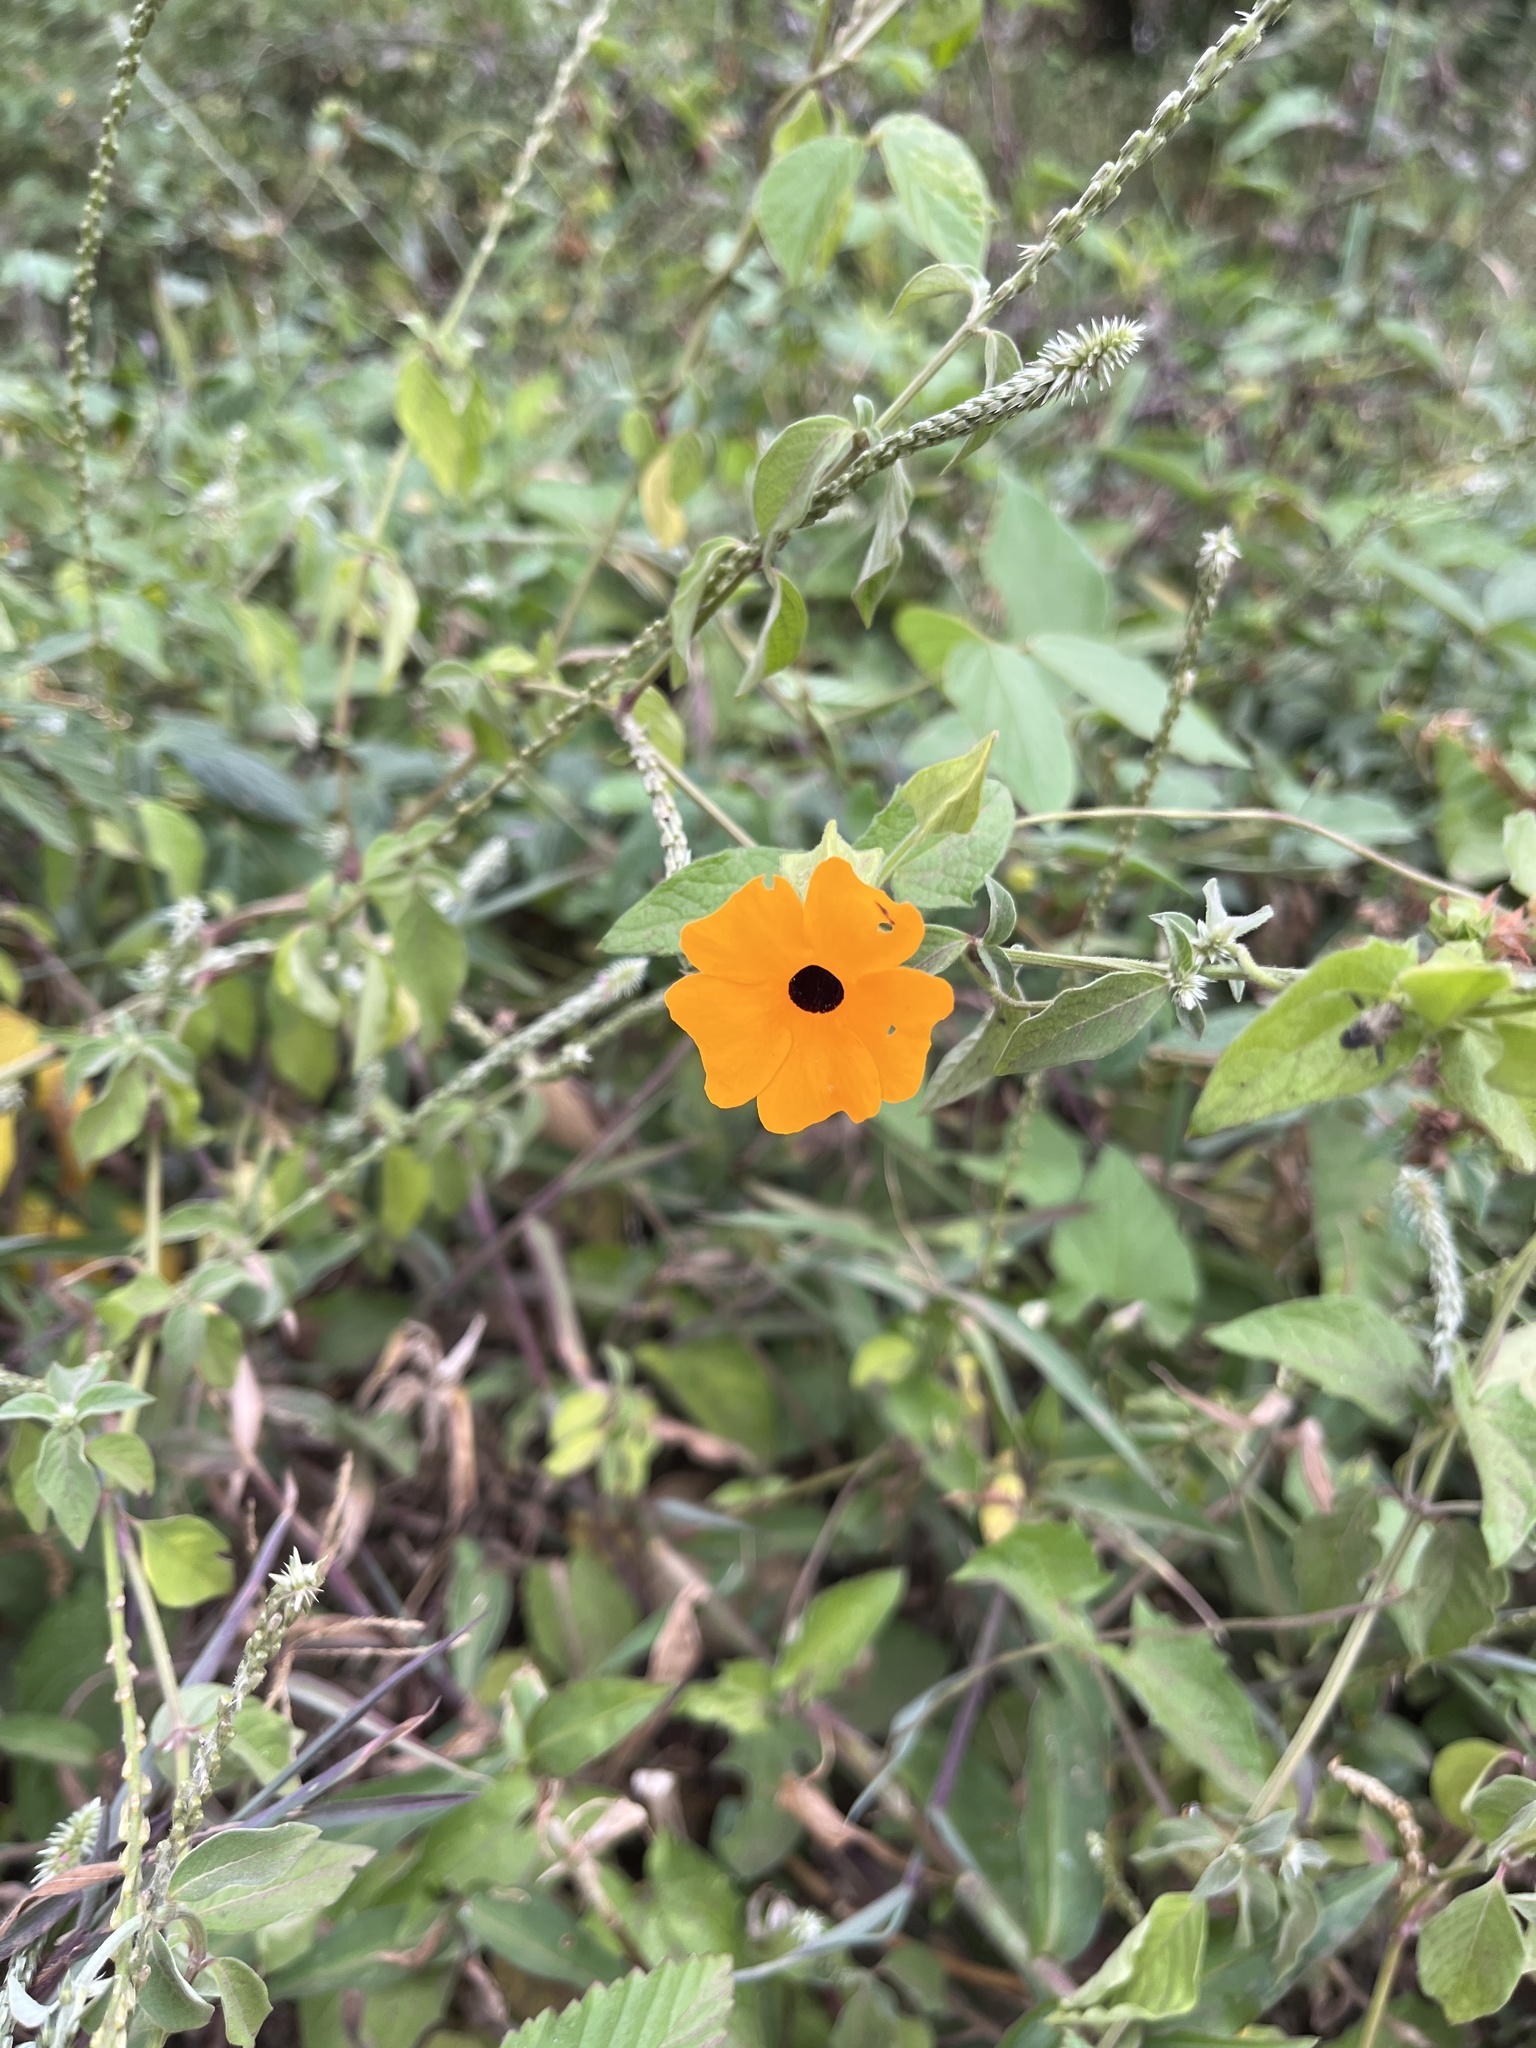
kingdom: Plantae
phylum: Tracheophyta
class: Magnoliopsida
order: Lamiales
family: Acanthaceae
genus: Thunbergia
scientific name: Thunbergia alata
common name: Blackeyed susan vine
